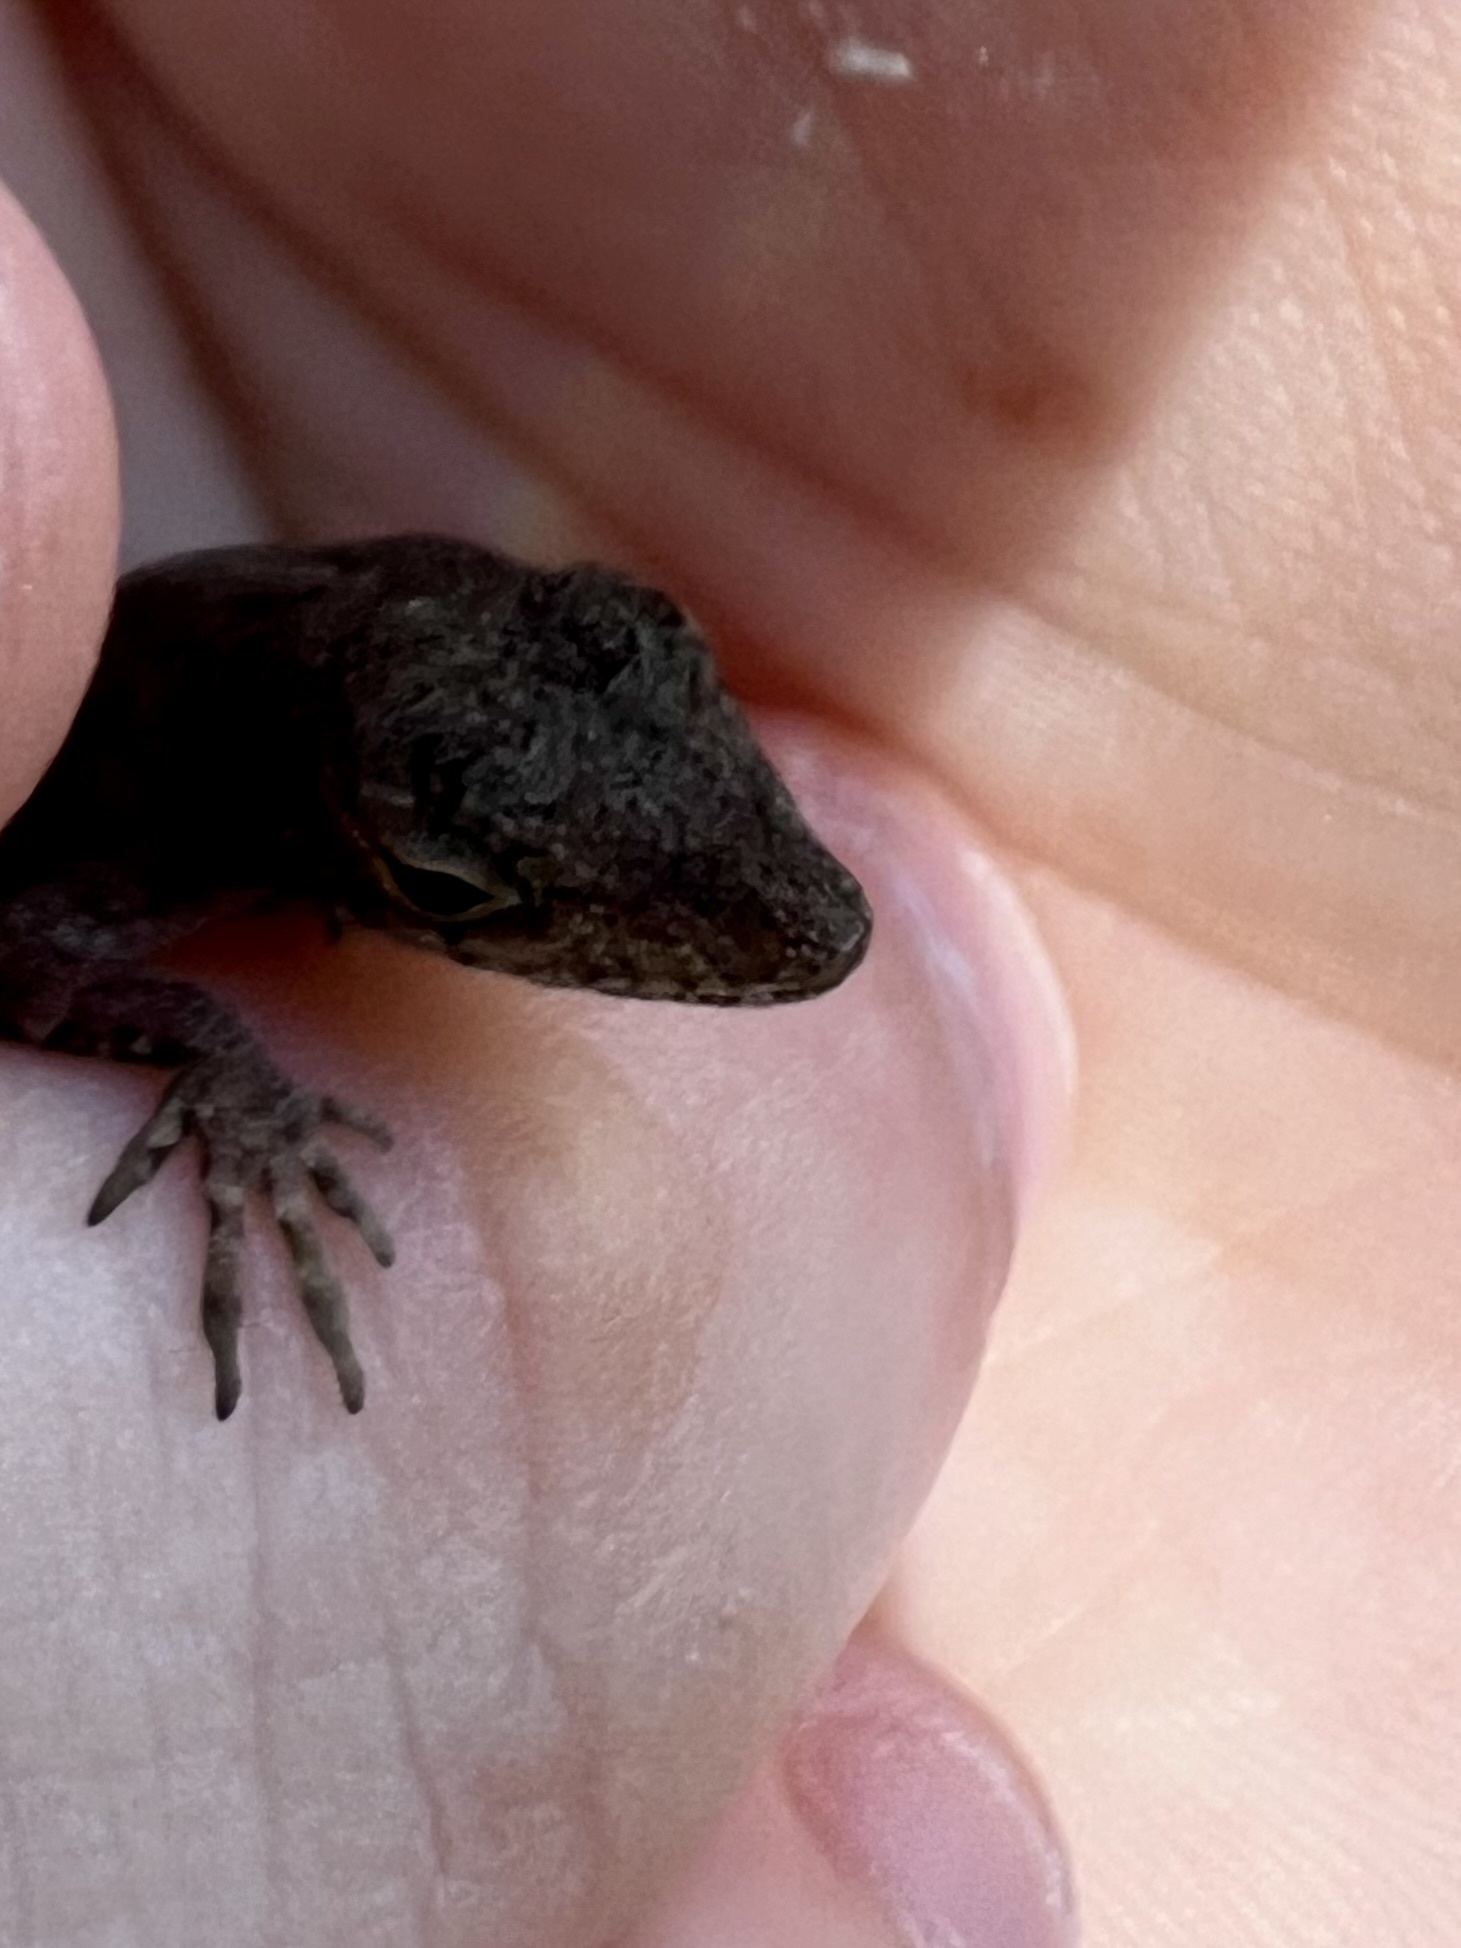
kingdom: Animalia
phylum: Chordata
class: Squamata
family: Dactyloidae
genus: Anolis
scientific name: Anolis sagrei
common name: Brown anole
